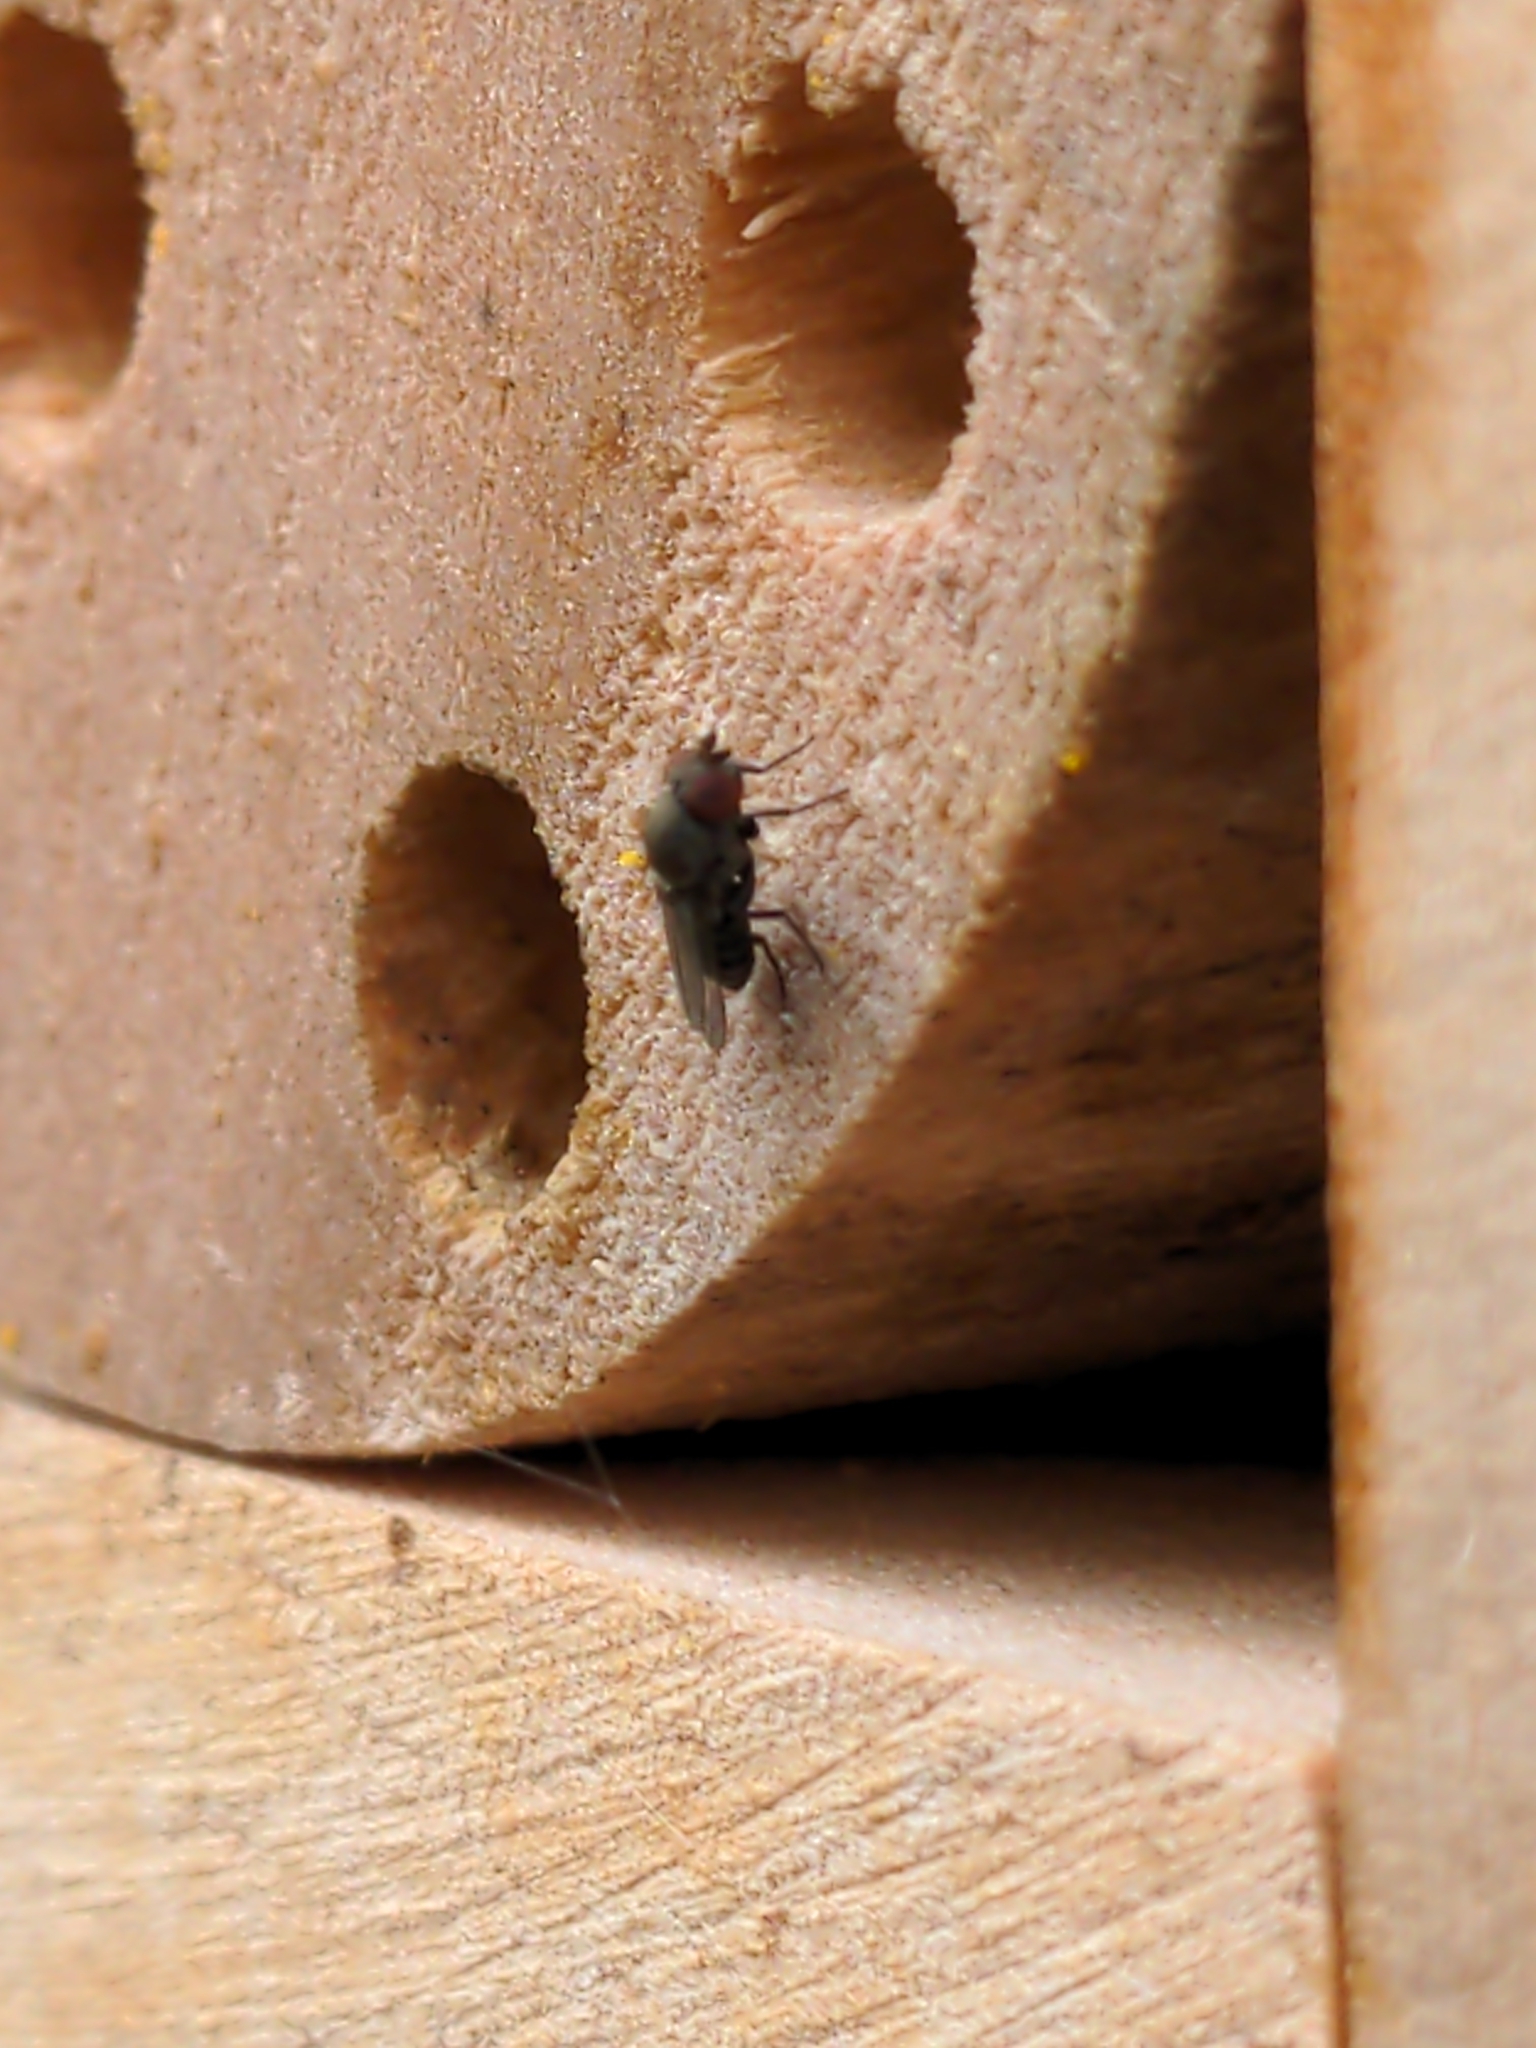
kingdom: Animalia
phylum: Arthropoda
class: Insecta
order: Diptera
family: Drosophilidae
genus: Cacoxenus
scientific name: Cacoxenus indagator
